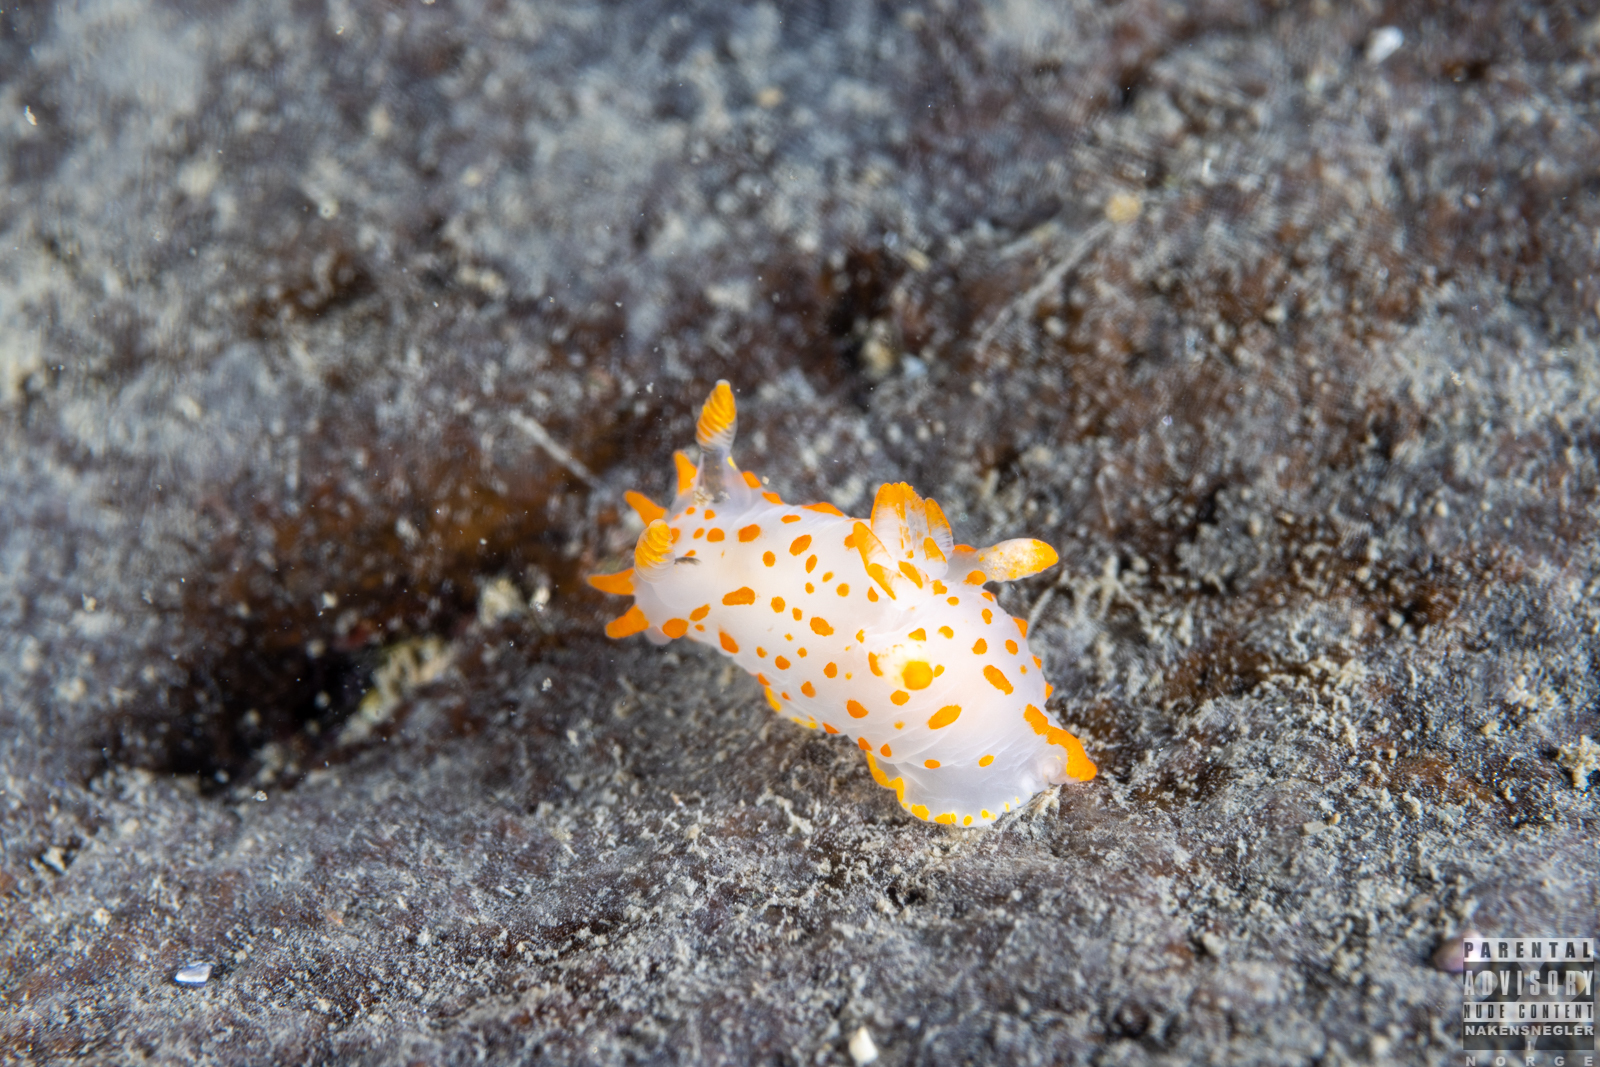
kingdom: Animalia
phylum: Mollusca
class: Gastropoda
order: Nudibranchia
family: Polyceridae
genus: Polycera
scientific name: Polycera quadrilineata
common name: Four-striped polycera
